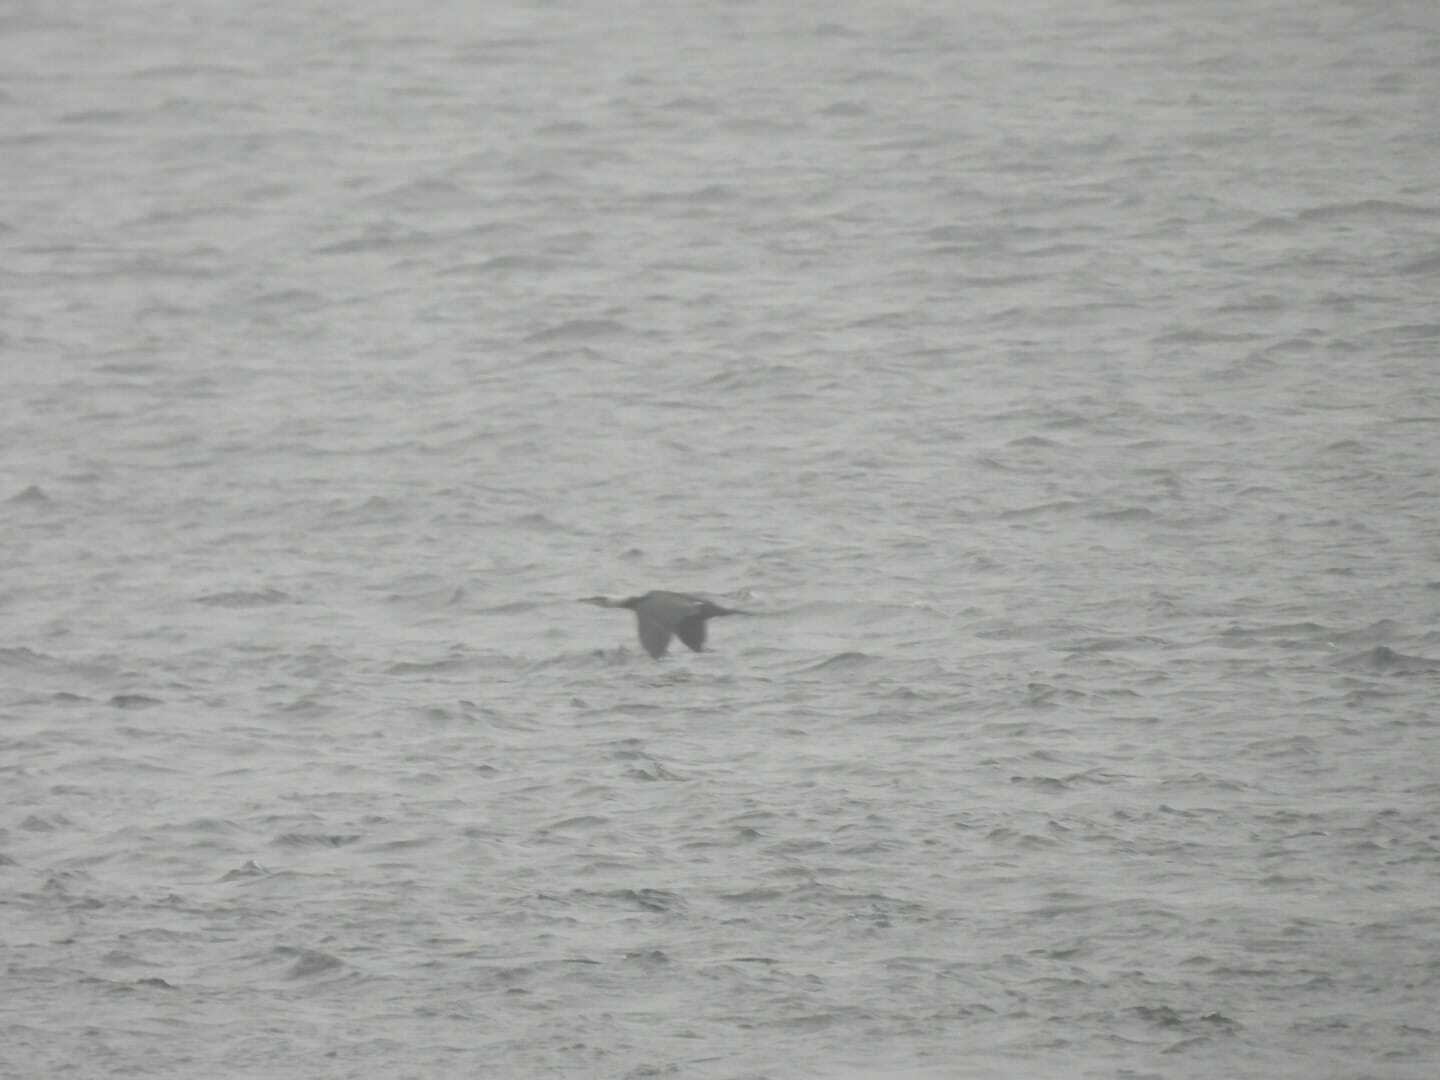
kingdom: Animalia
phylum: Chordata
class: Aves
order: Suliformes
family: Phalacrocoracidae
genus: Phalacrocorax
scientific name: Phalacrocorax carbo
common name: Great cormorant
